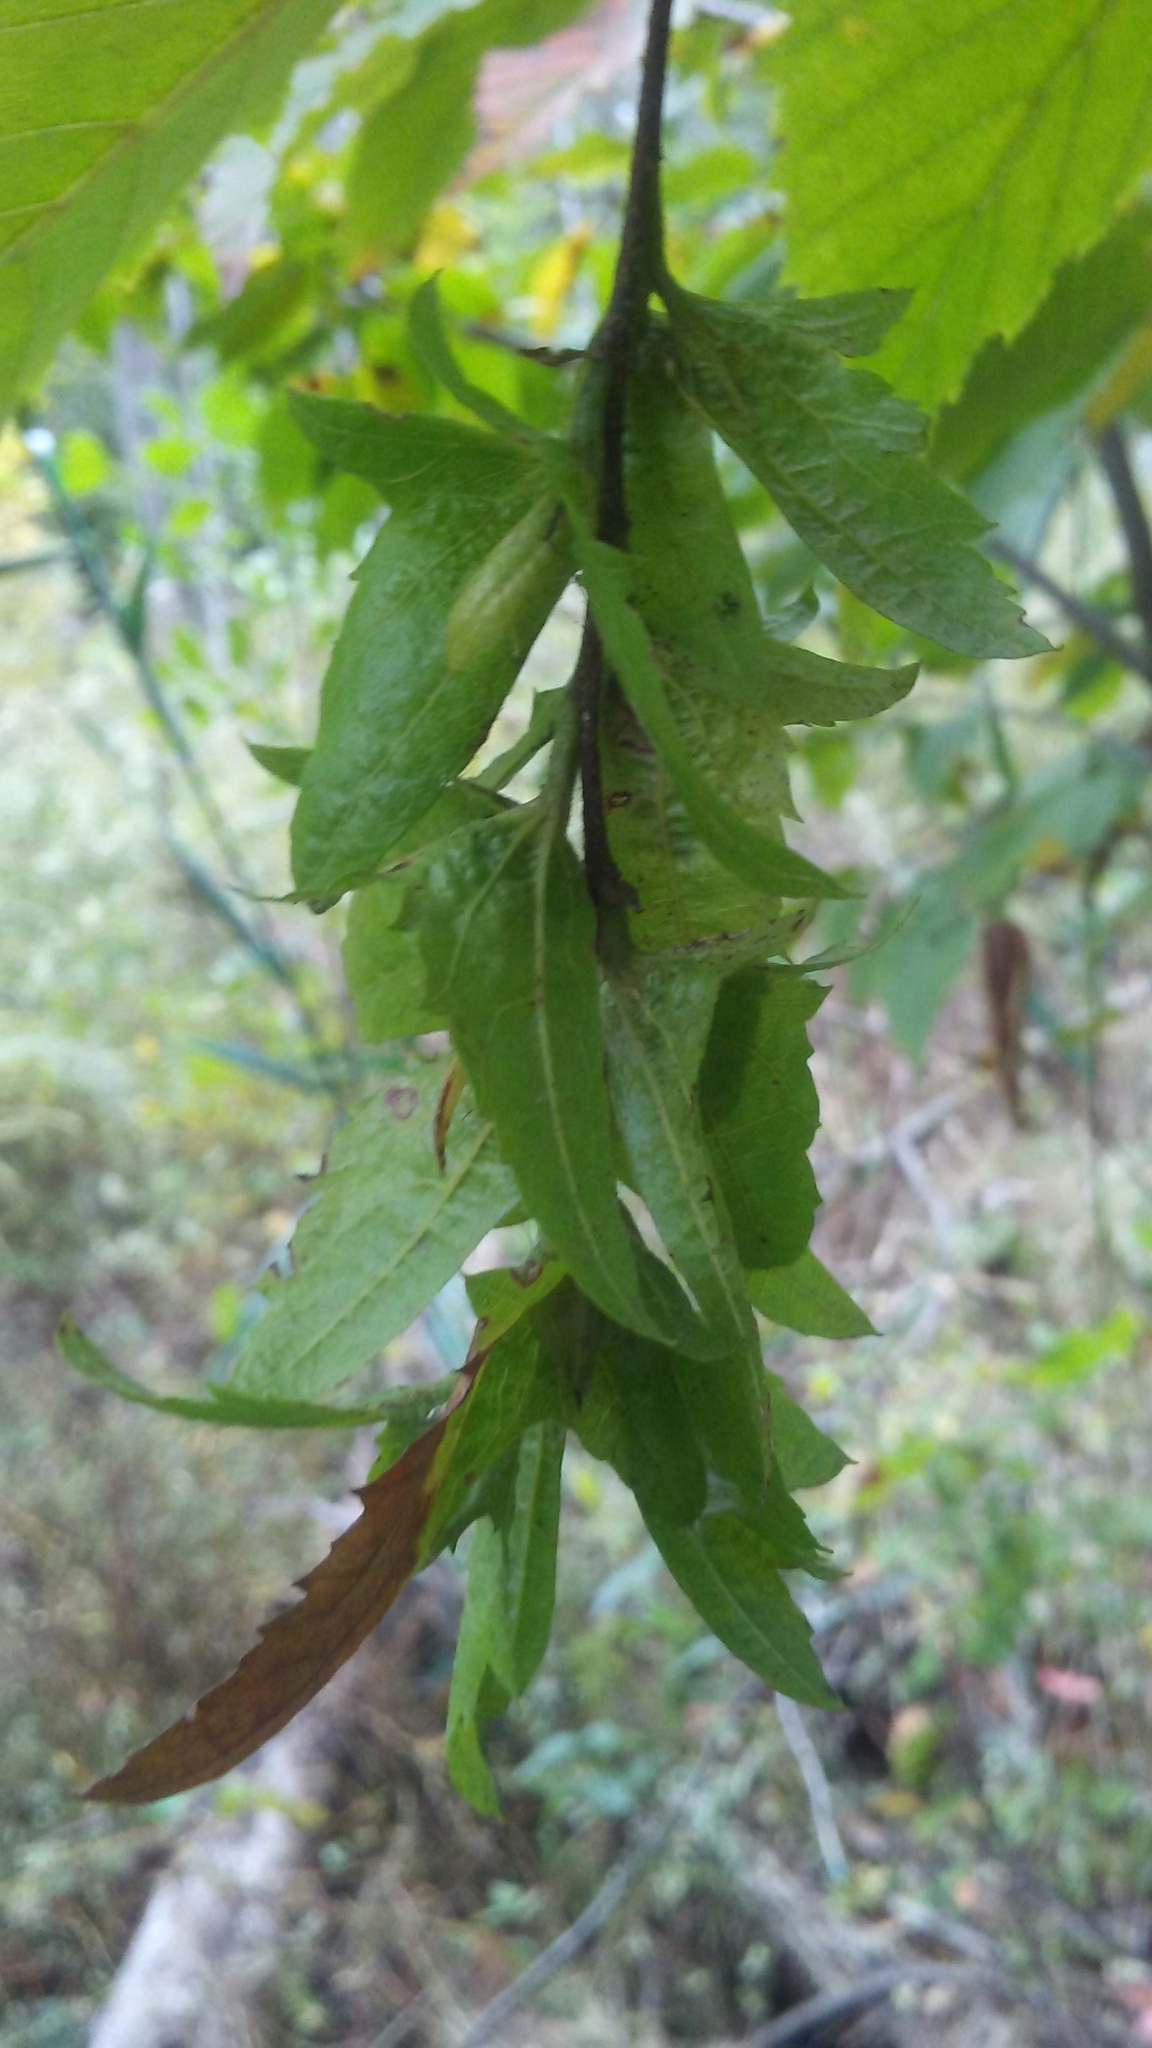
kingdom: Plantae
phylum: Tracheophyta
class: Magnoliopsida
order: Fagales
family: Betulaceae
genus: Carpinus
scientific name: Carpinus caroliniana
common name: American hornbeam
